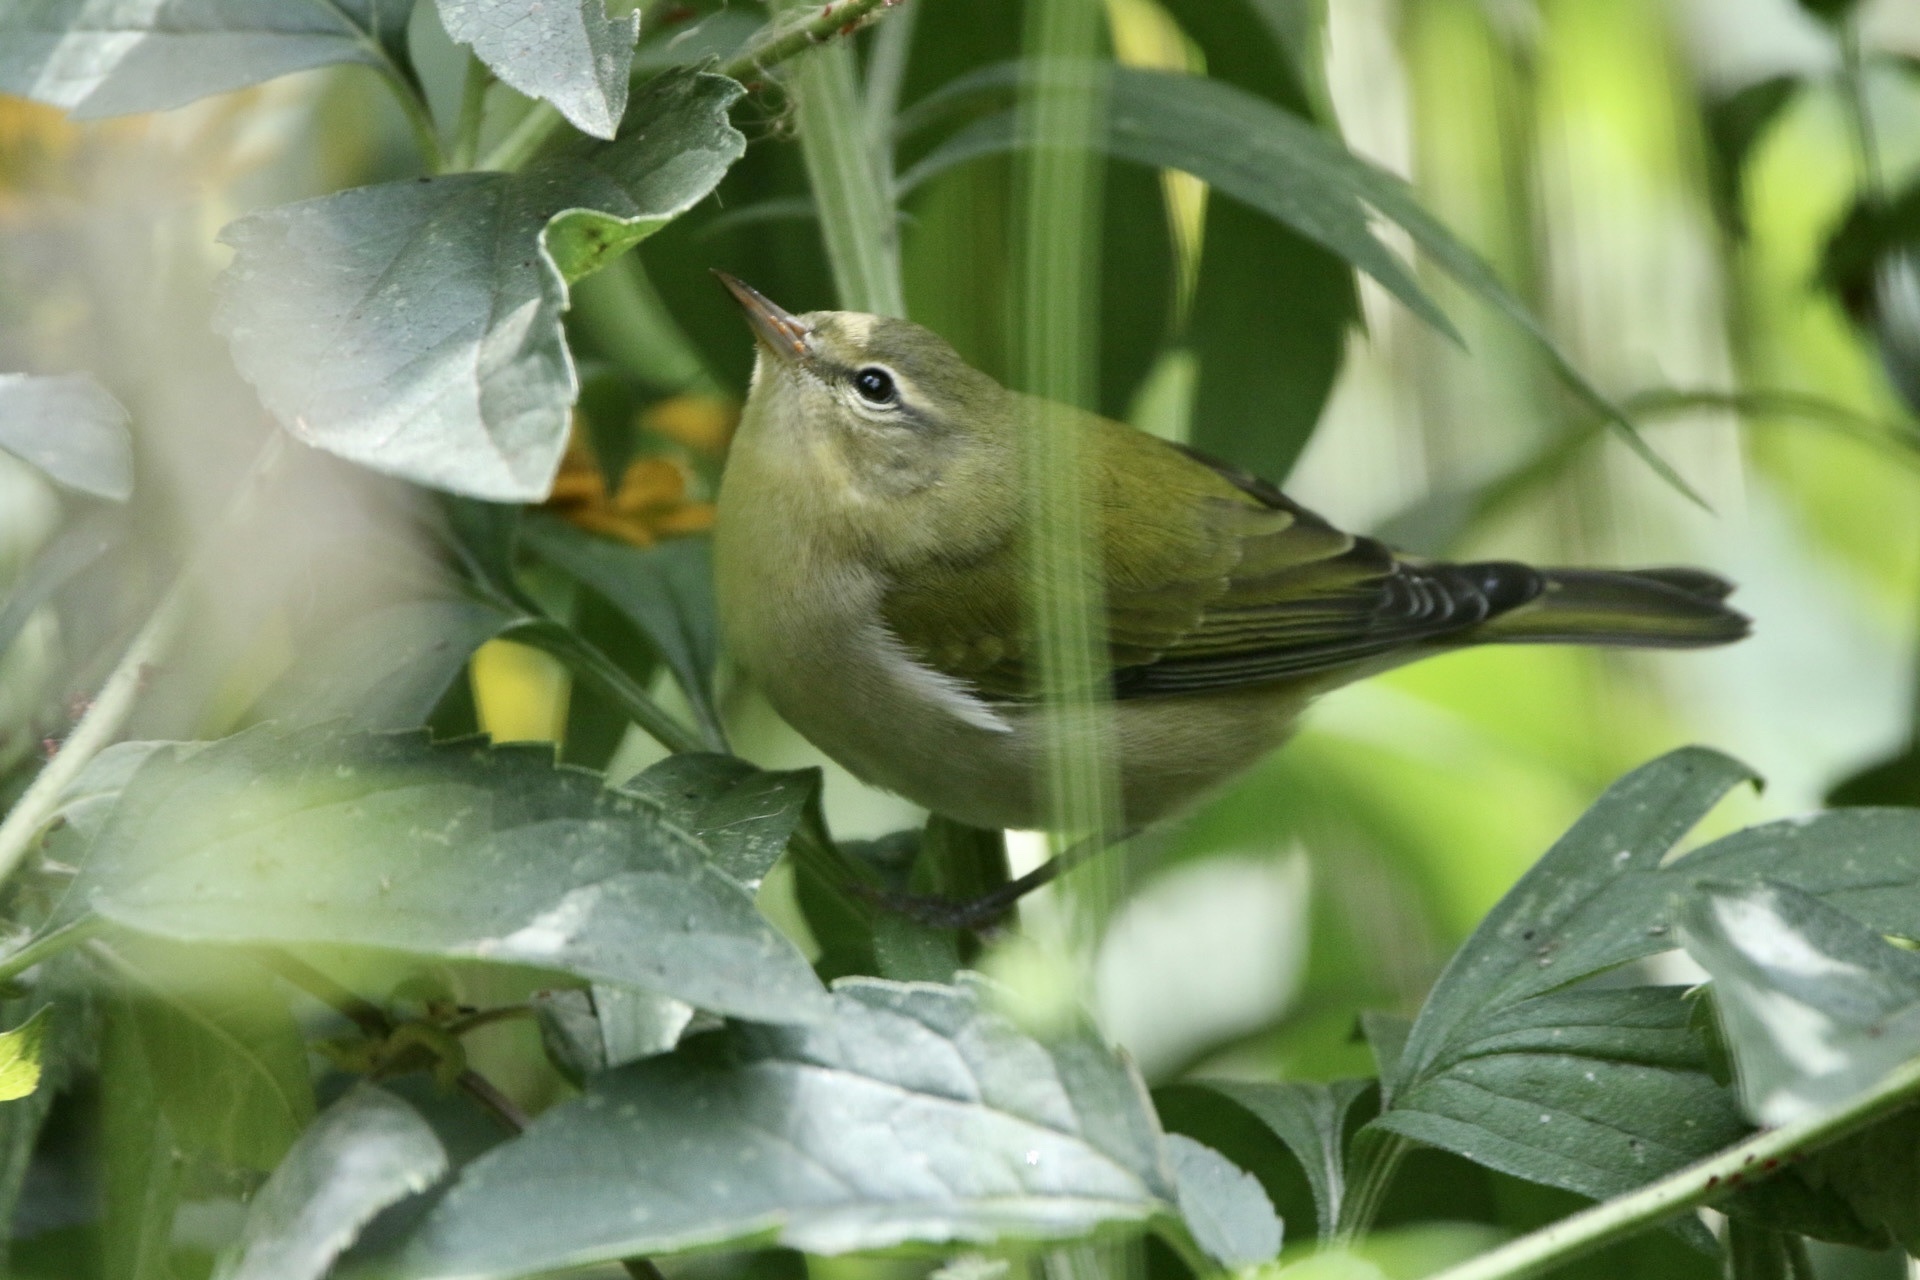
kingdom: Animalia
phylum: Chordata
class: Aves
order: Passeriformes
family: Parulidae
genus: Leiothlypis
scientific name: Leiothlypis peregrina
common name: Tennessee warbler
